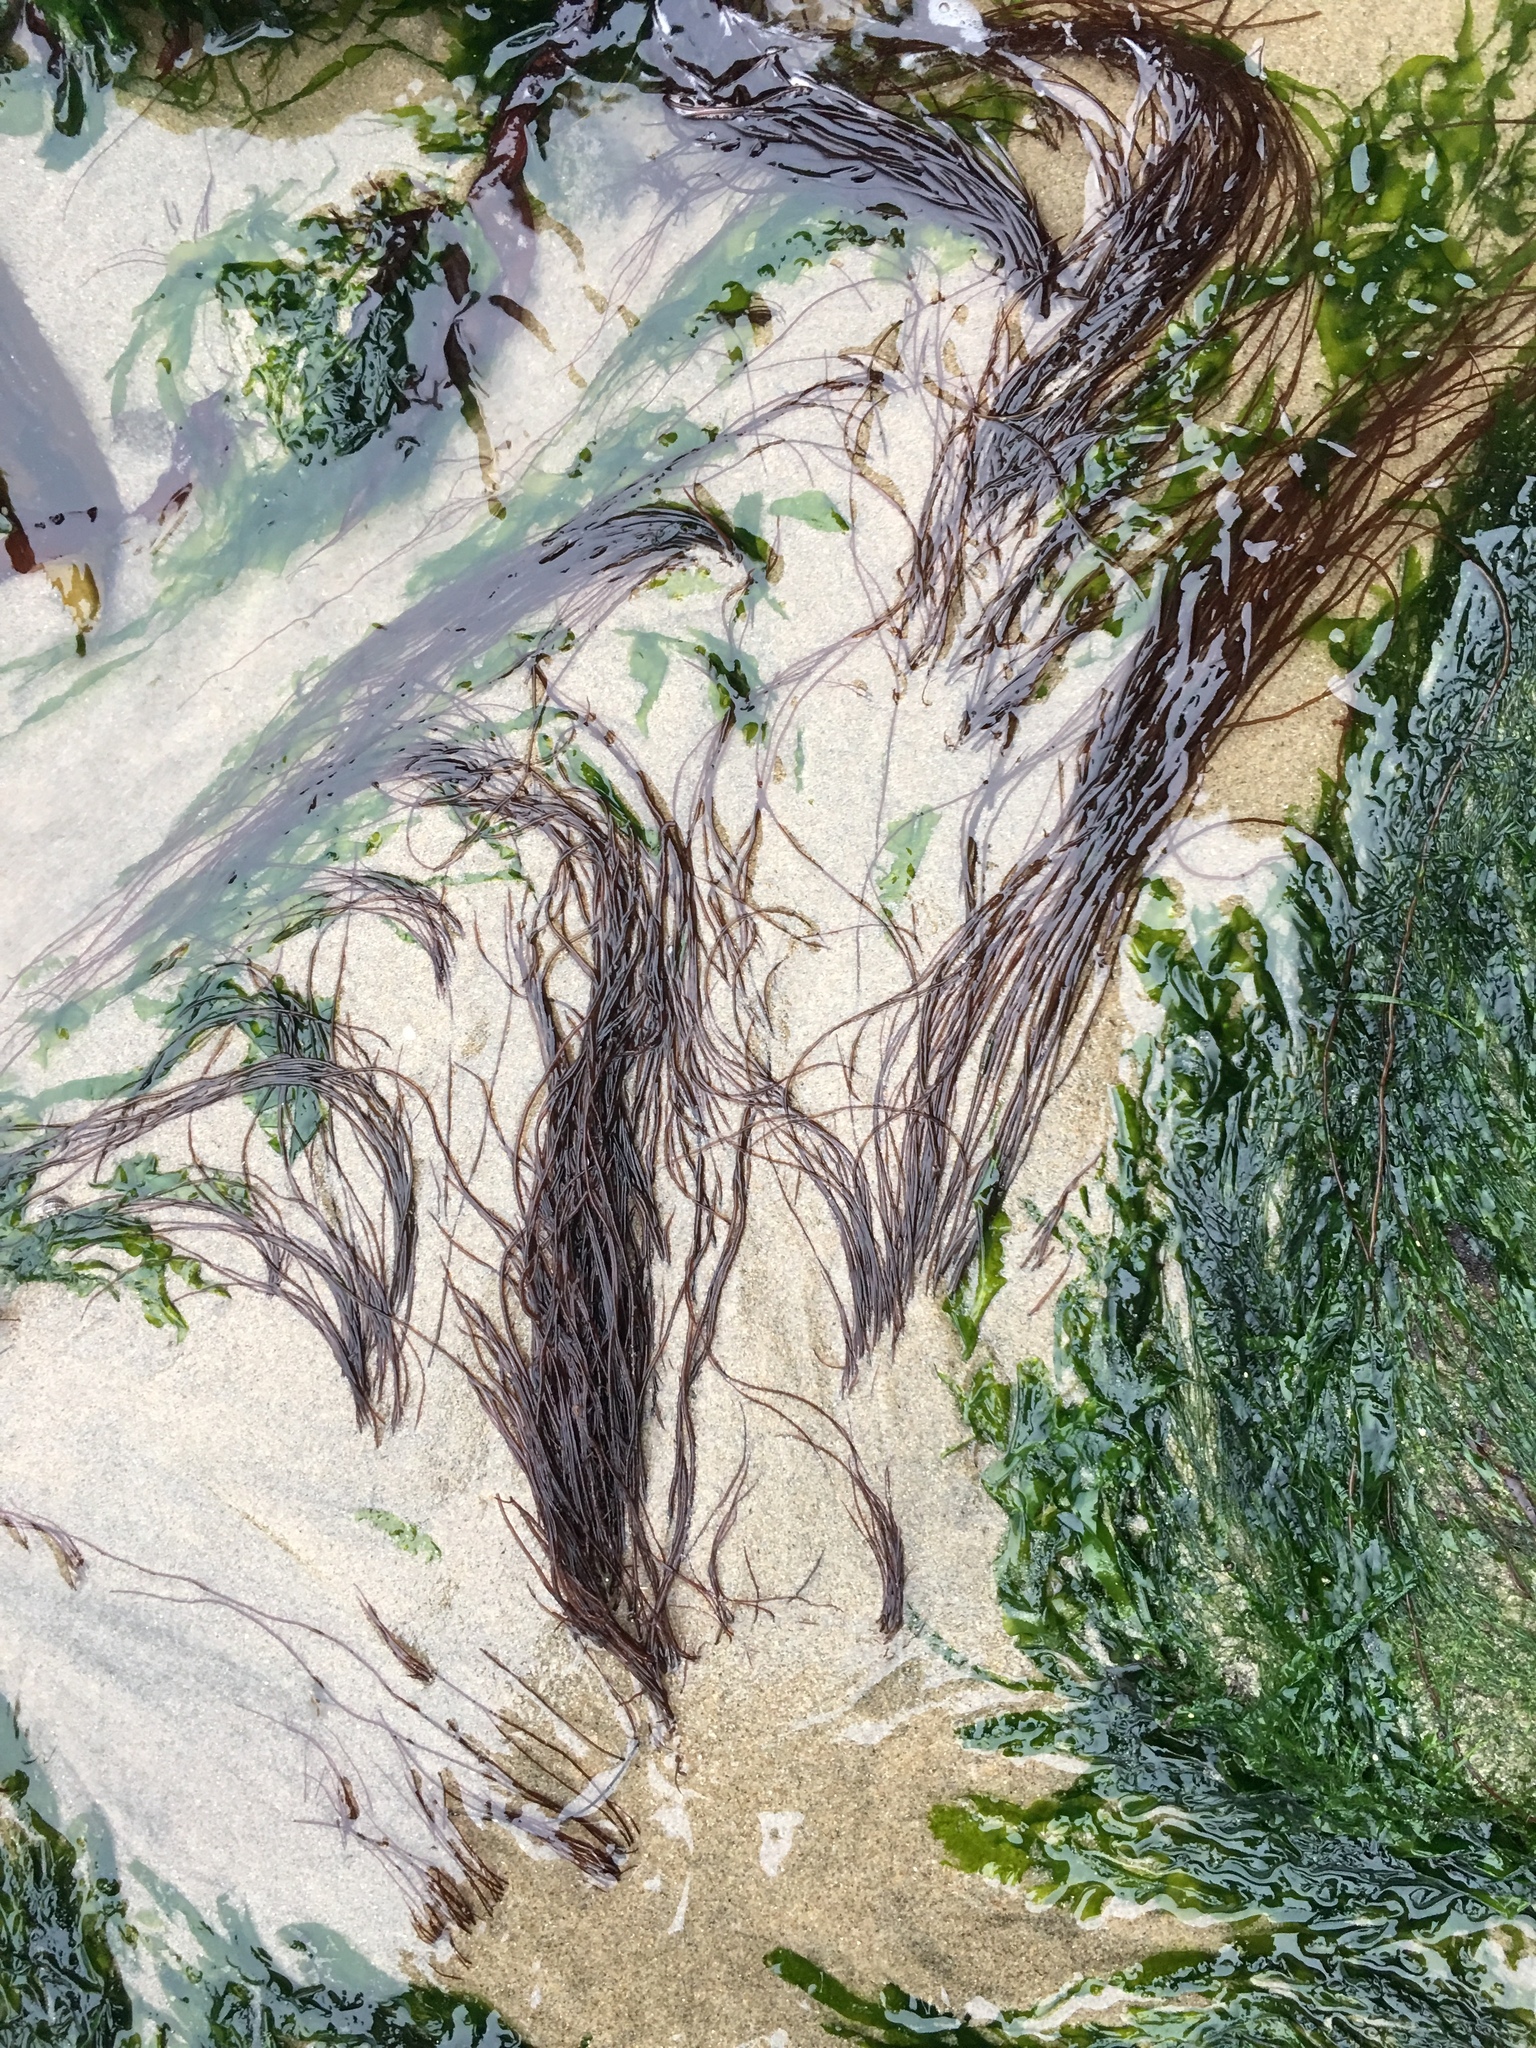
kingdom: Plantae
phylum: Rhodophyta
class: Florideophyceae
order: Gracilariales
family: Gracilariaceae
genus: Gracilariopsis
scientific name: Gracilariopsis andersonii
